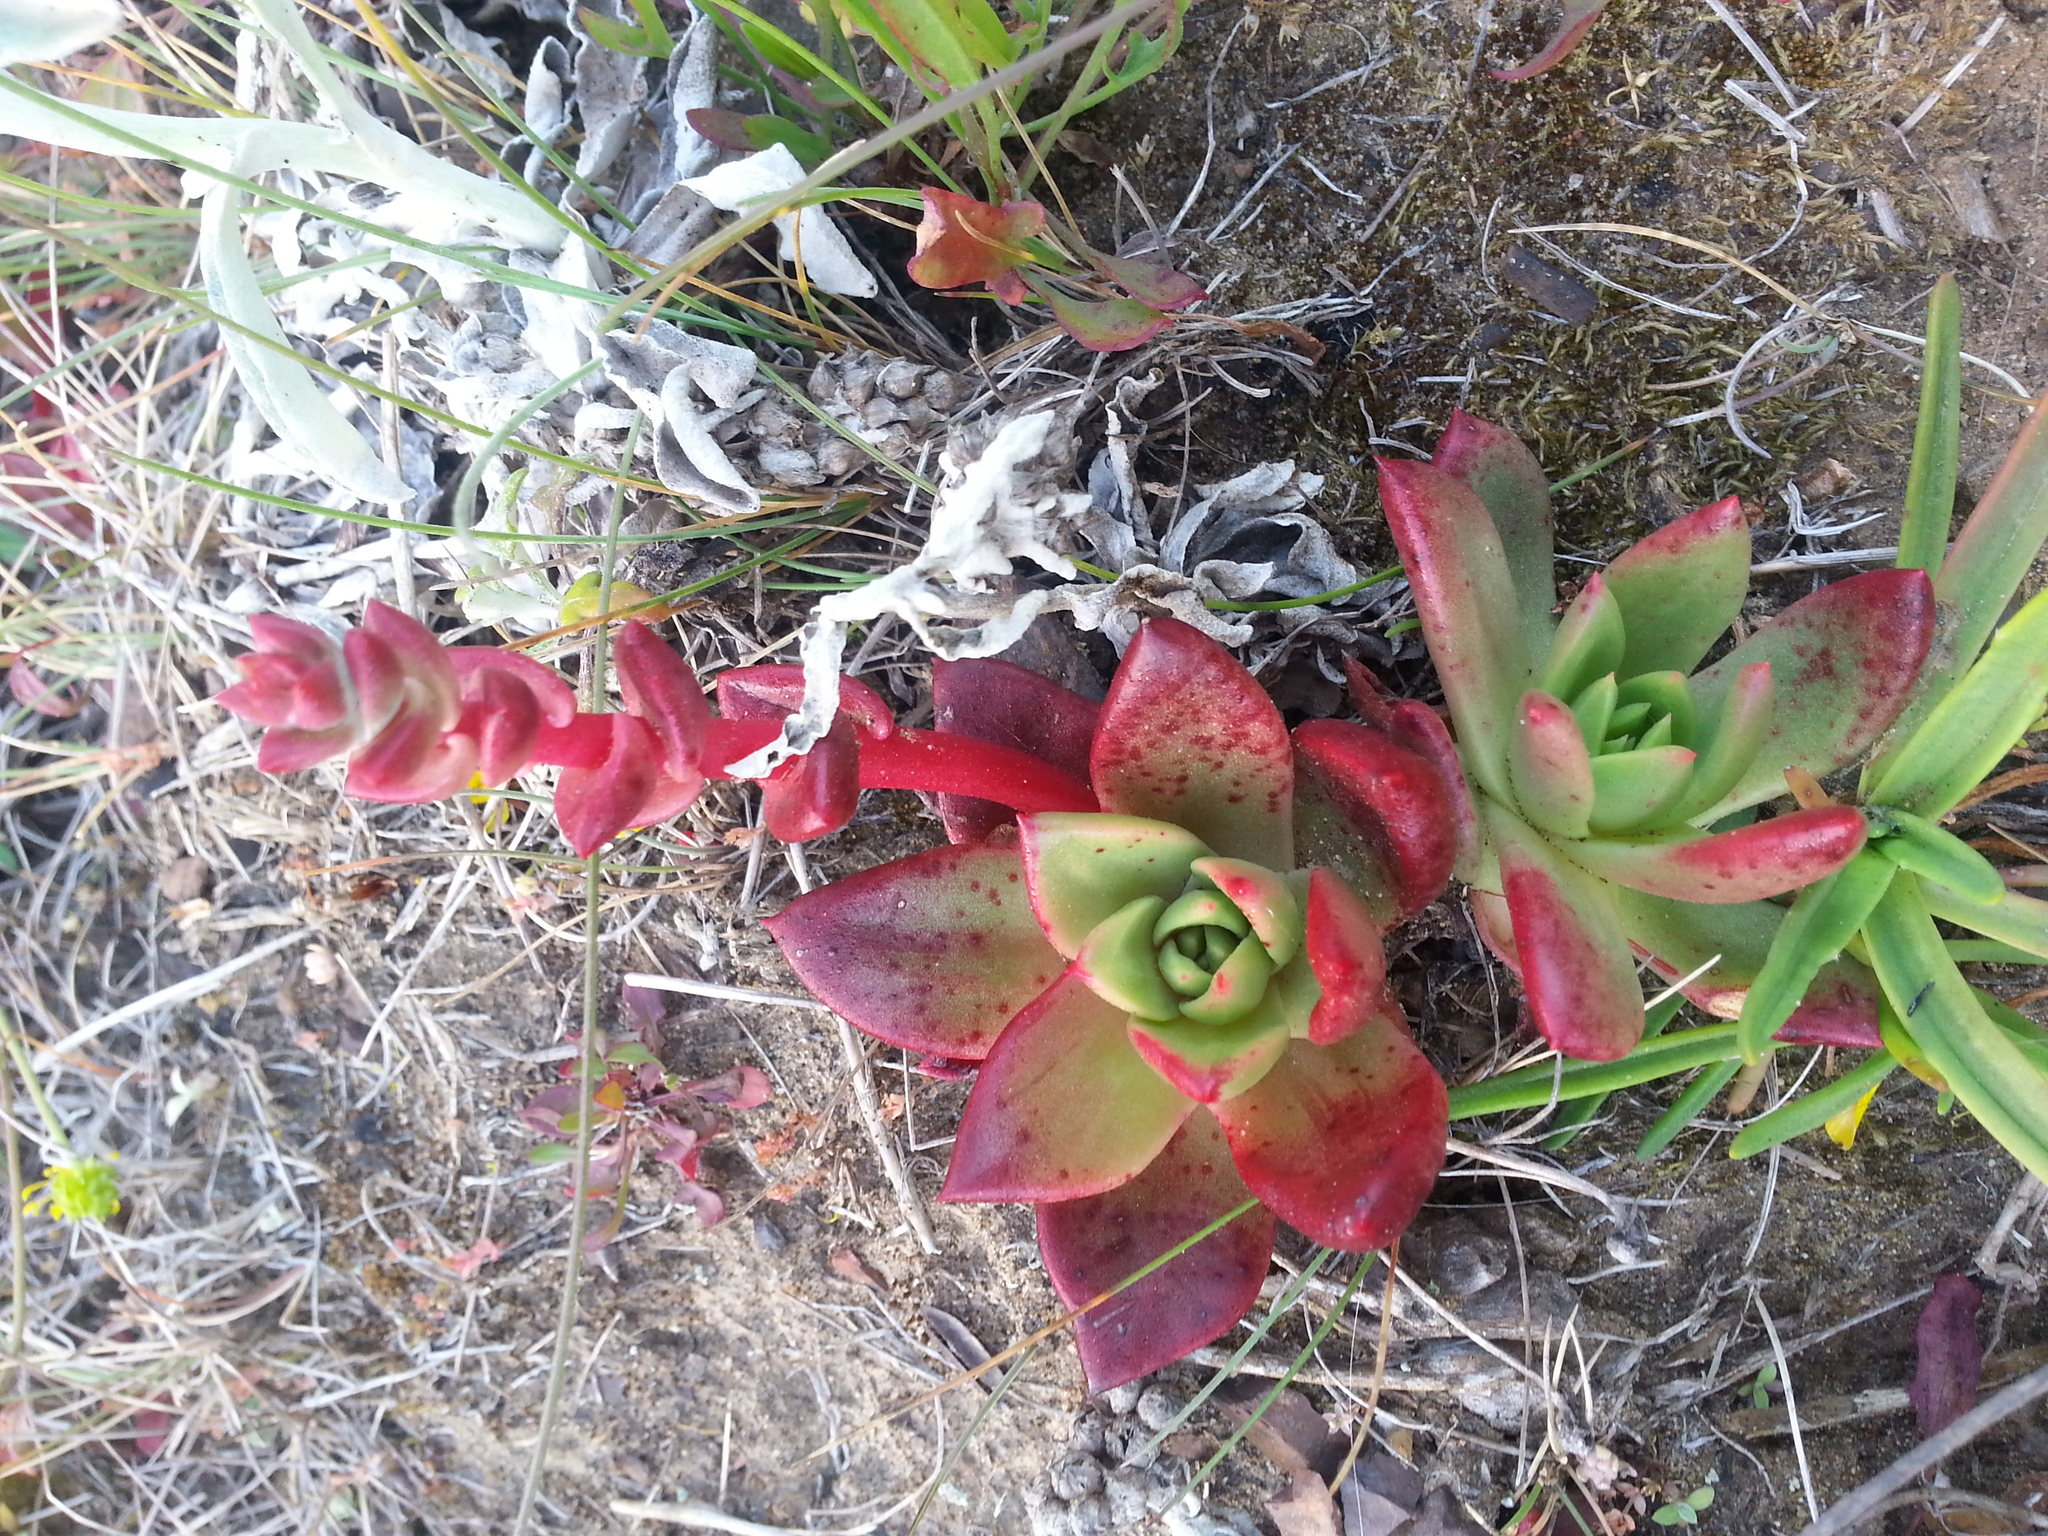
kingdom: Plantae
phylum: Tracheophyta
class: Magnoliopsida
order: Saxifragales
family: Crassulaceae
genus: Dudleya
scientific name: Dudleya farinosa
